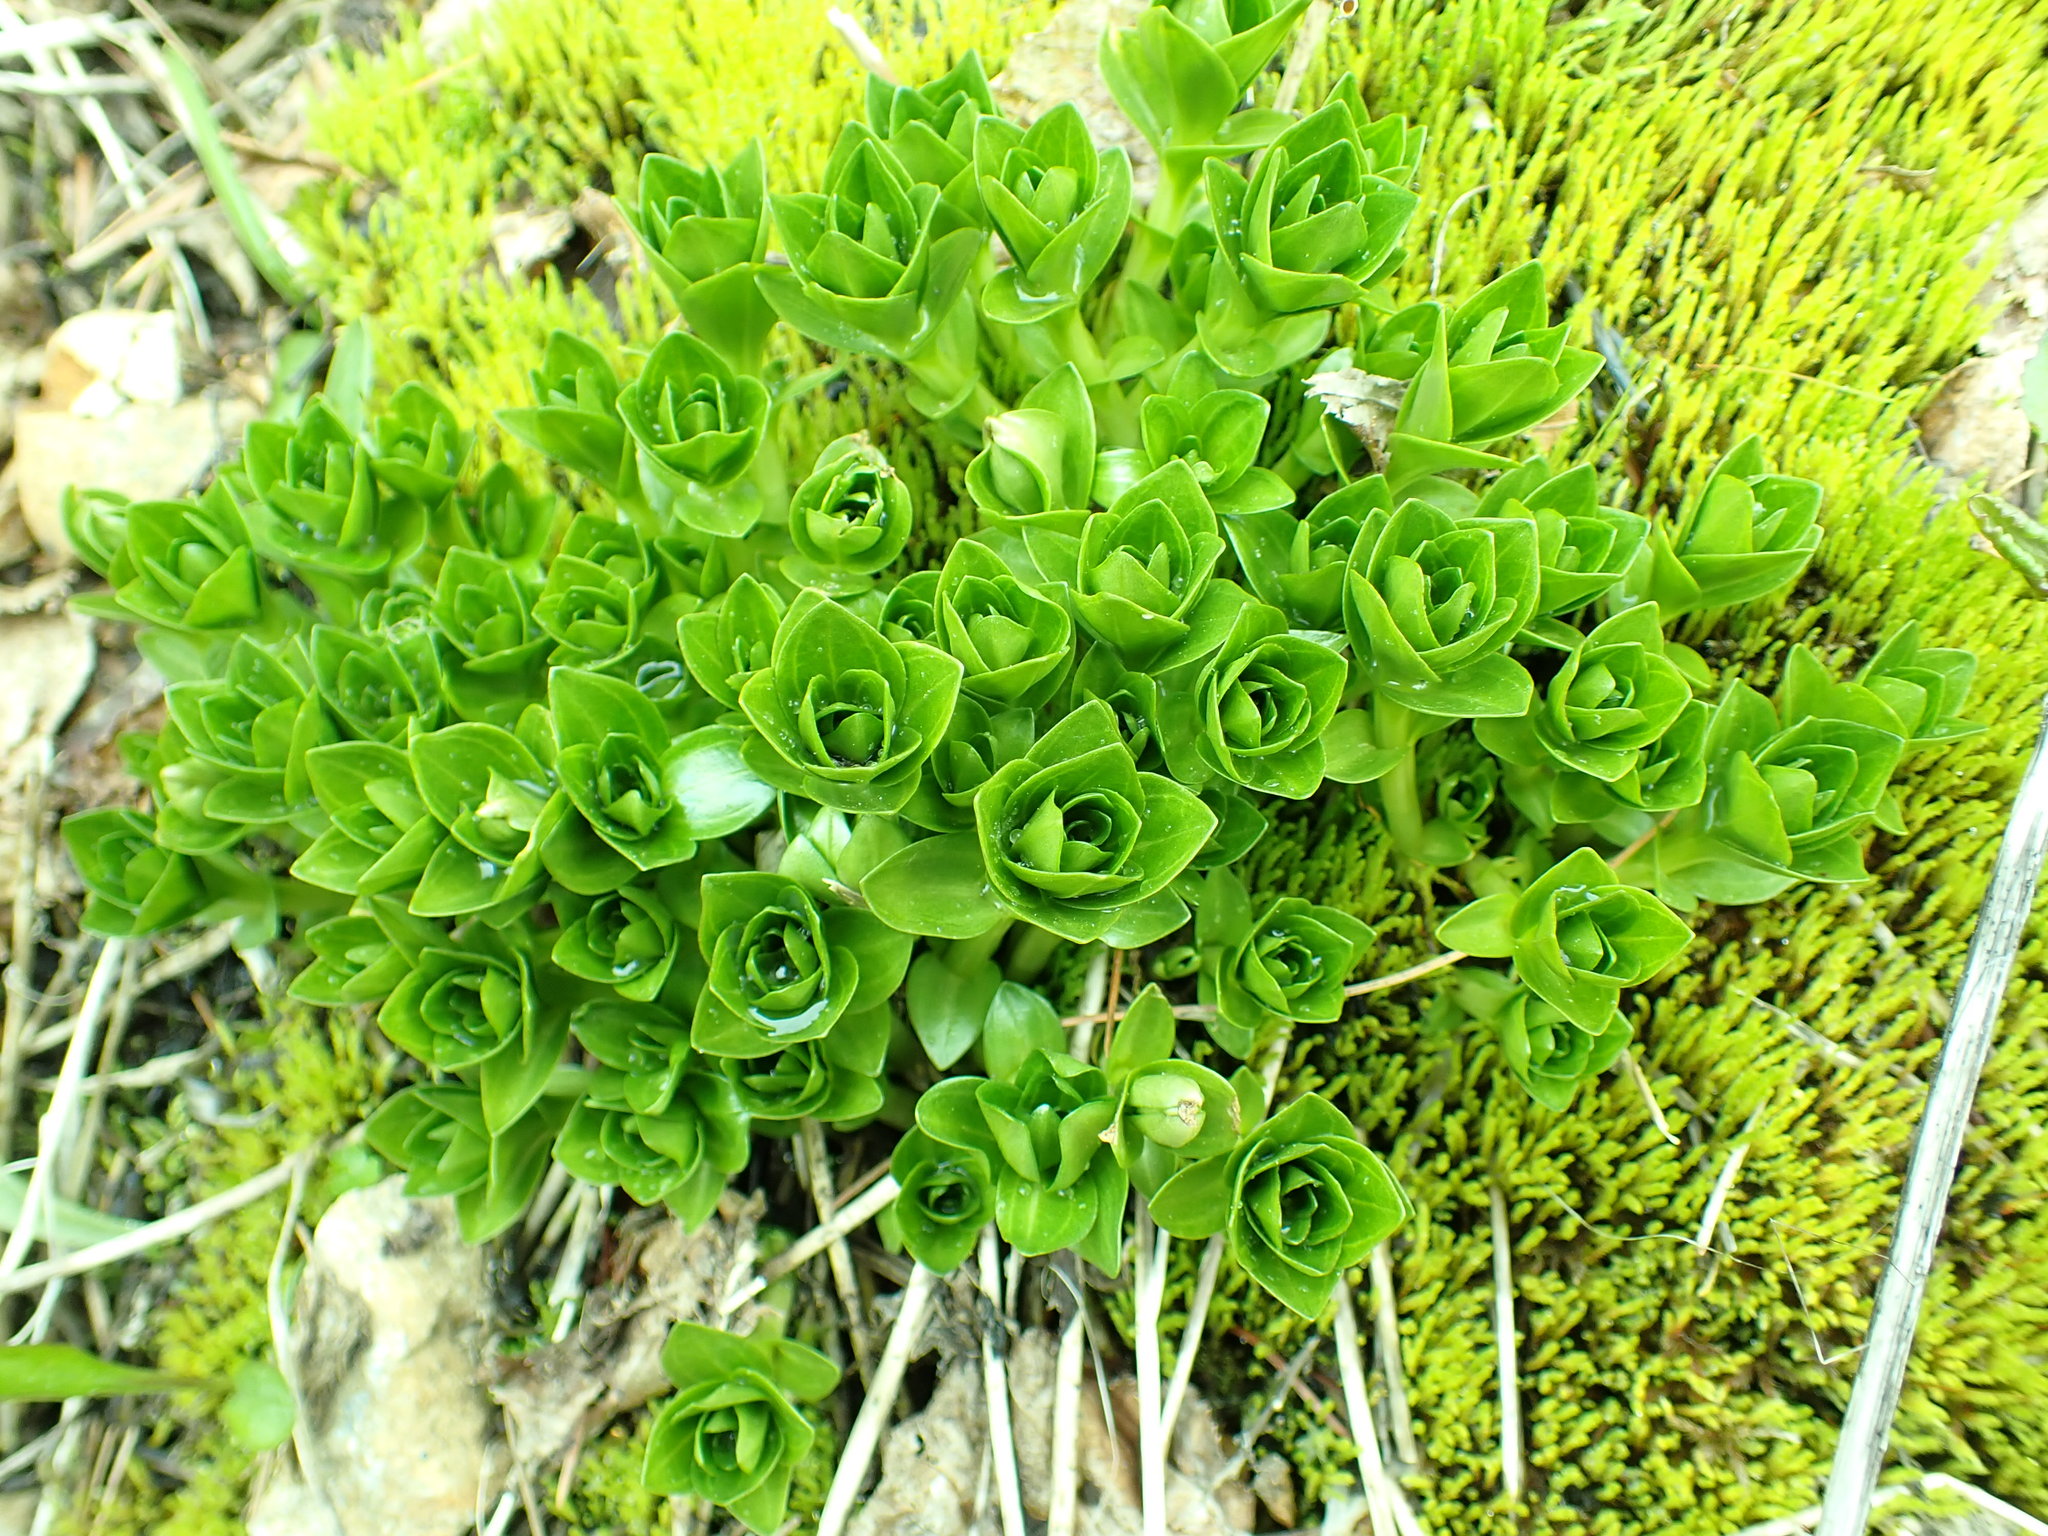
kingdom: Plantae
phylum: Tracheophyta
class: Magnoliopsida
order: Gentianales
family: Gentianaceae
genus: Gentiana
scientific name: Gentiana calycosa
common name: Rainier pleated gentian
